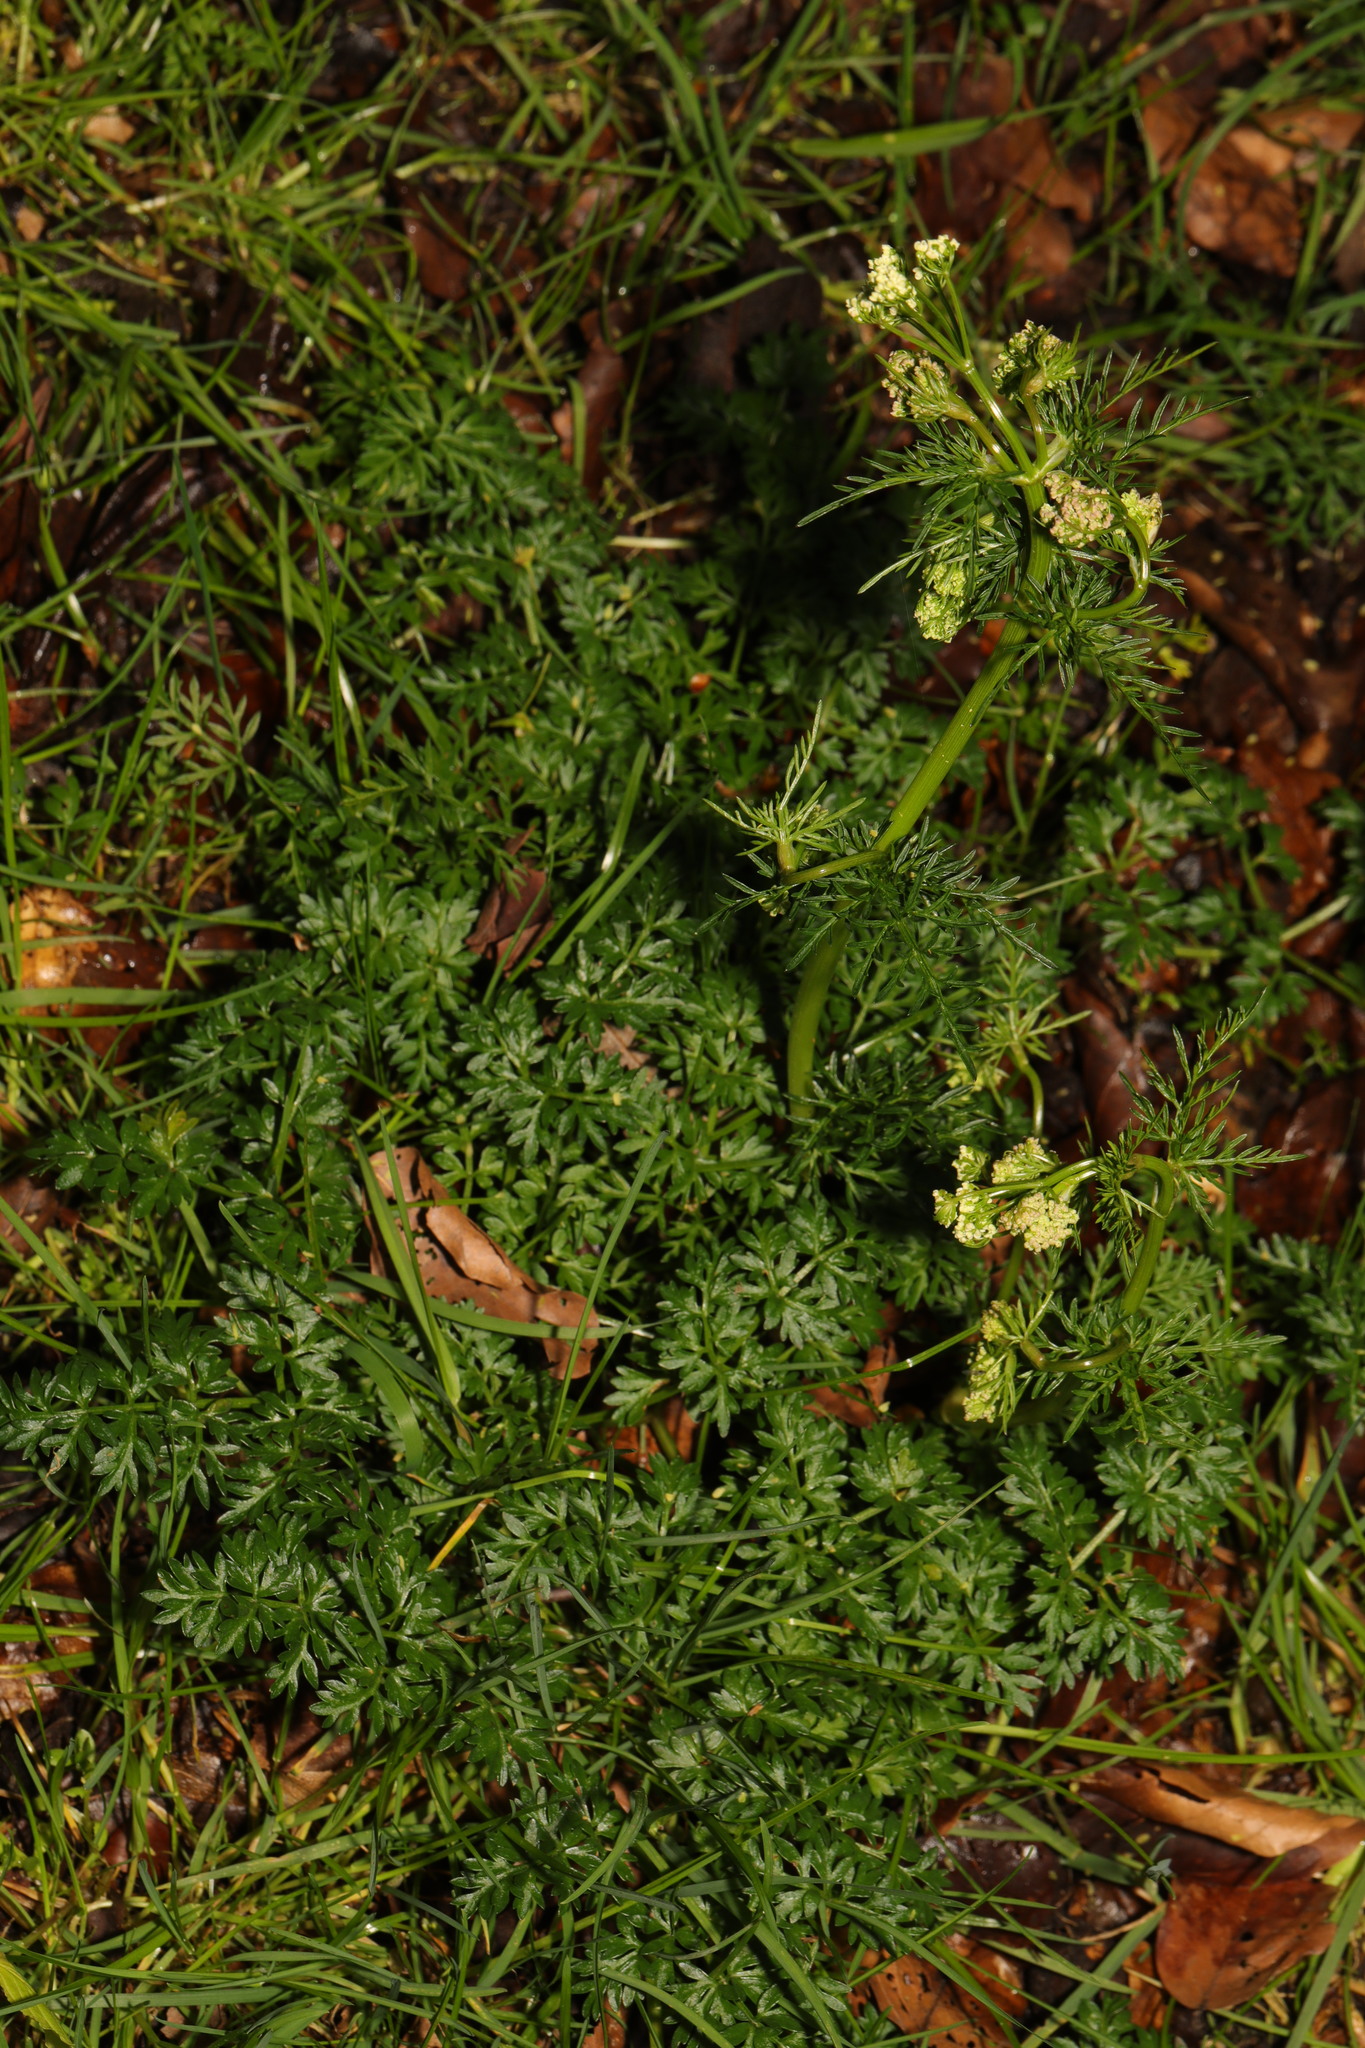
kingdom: Plantae
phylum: Tracheophyta
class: Magnoliopsida
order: Apiales
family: Apiaceae
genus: Conopodium
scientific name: Conopodium majus
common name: Pignut
